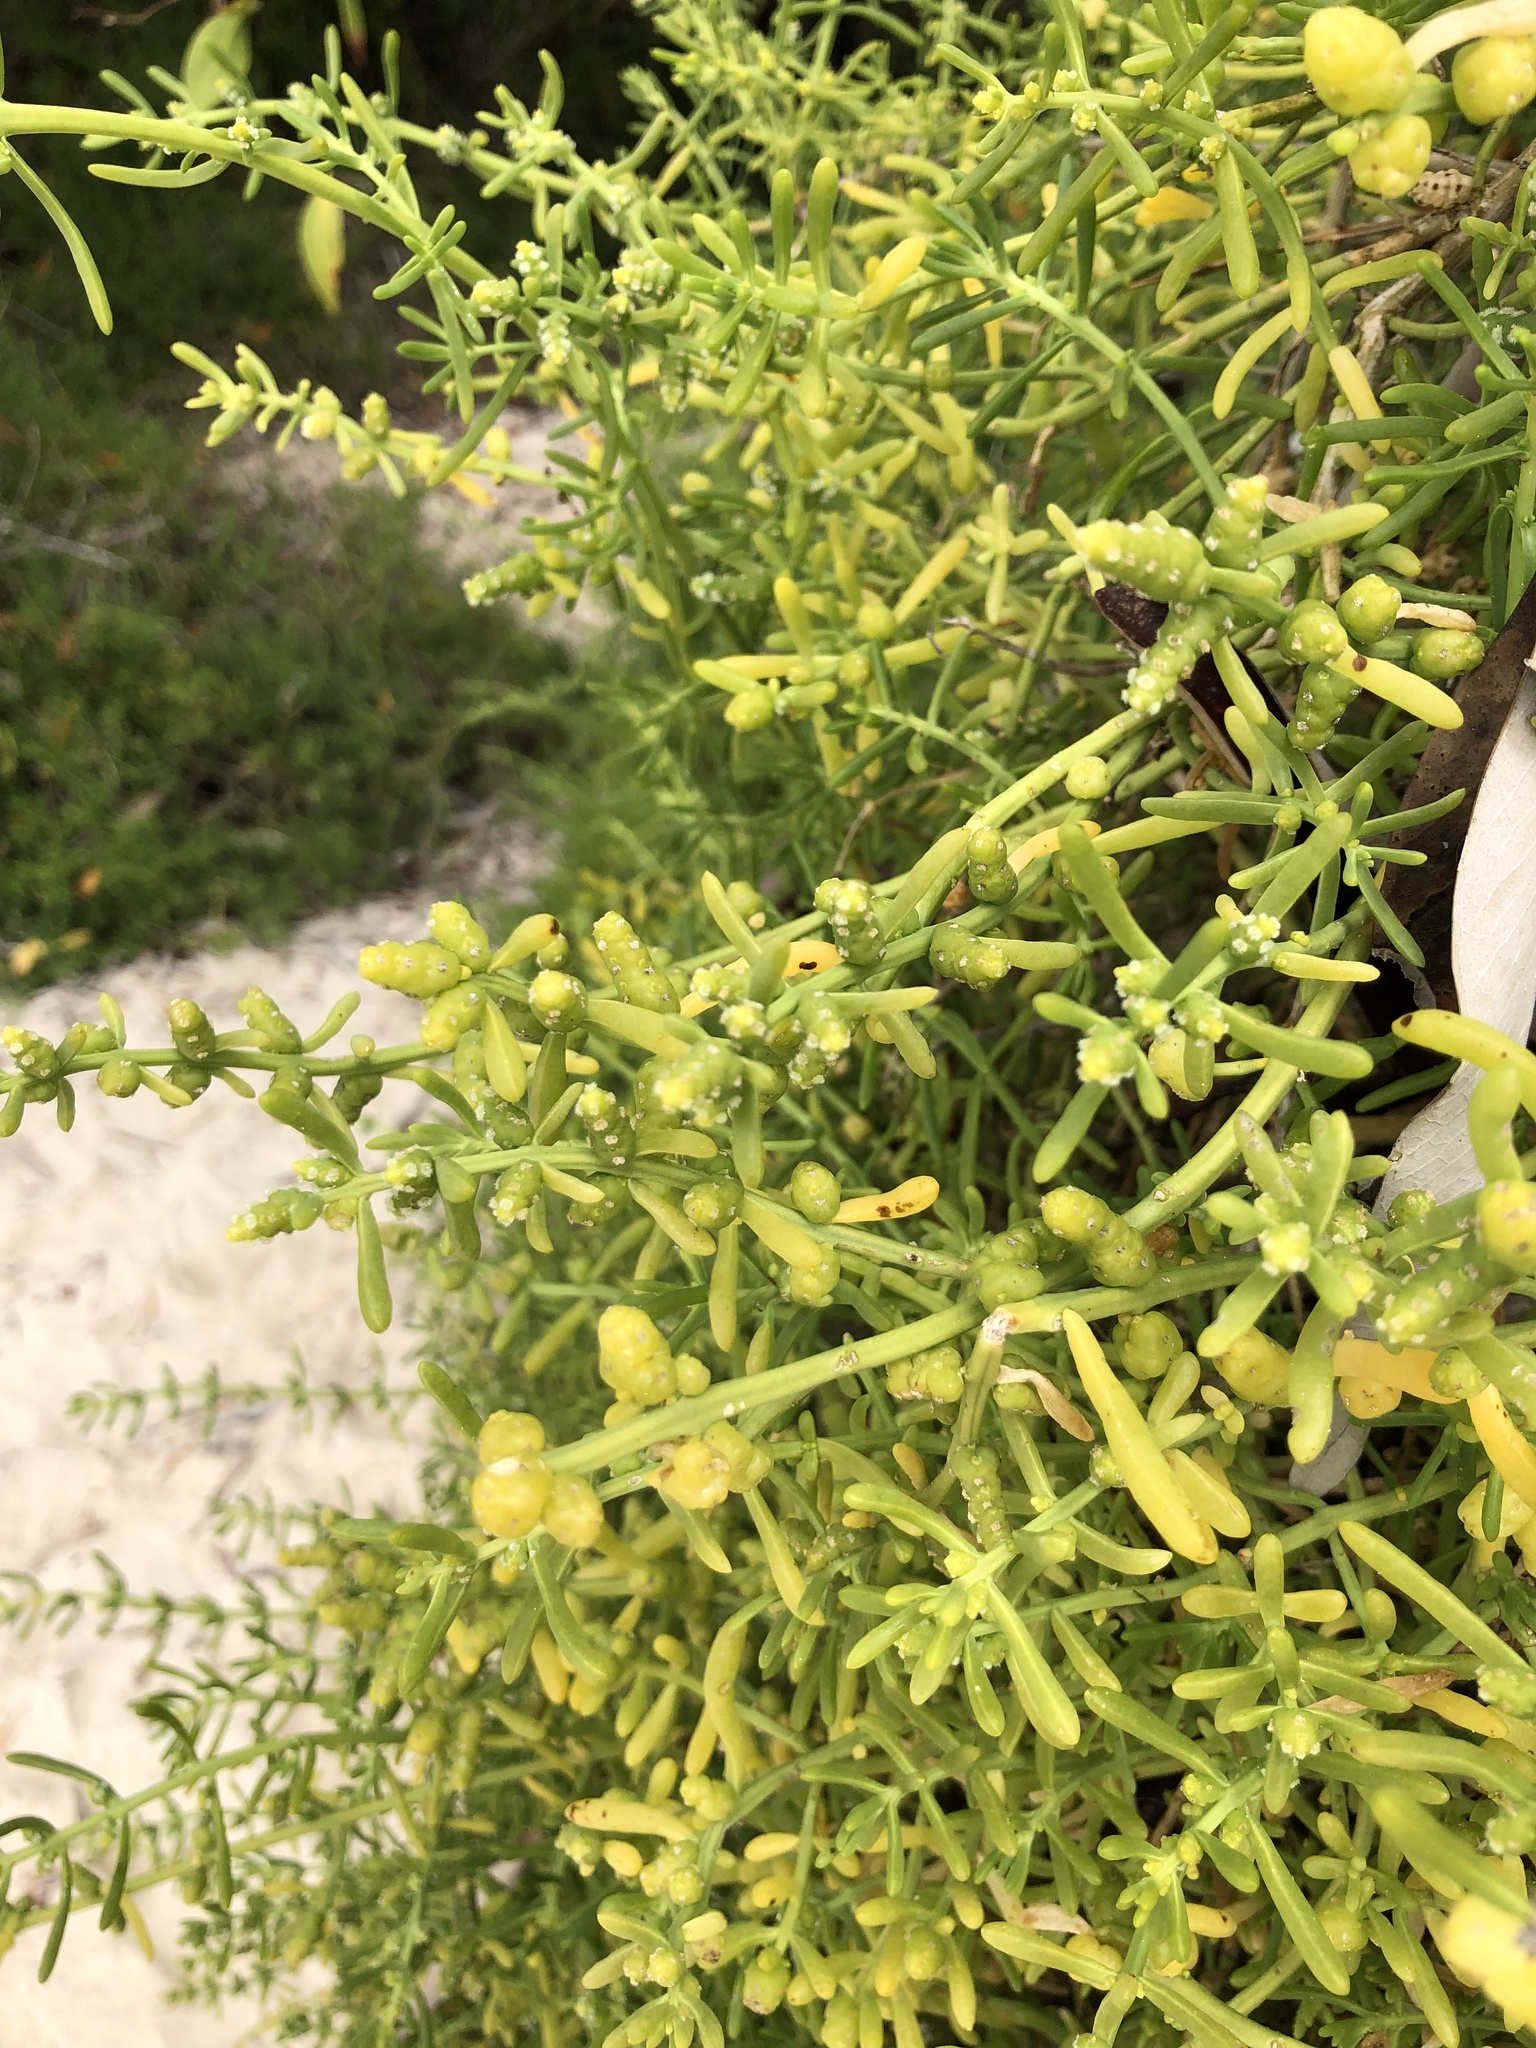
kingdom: Plantae
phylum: Tracheophyta
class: Magnoliopsida
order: Brassicales
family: Bataceae
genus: Batis
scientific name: Batis maritima
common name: Turtleweed
